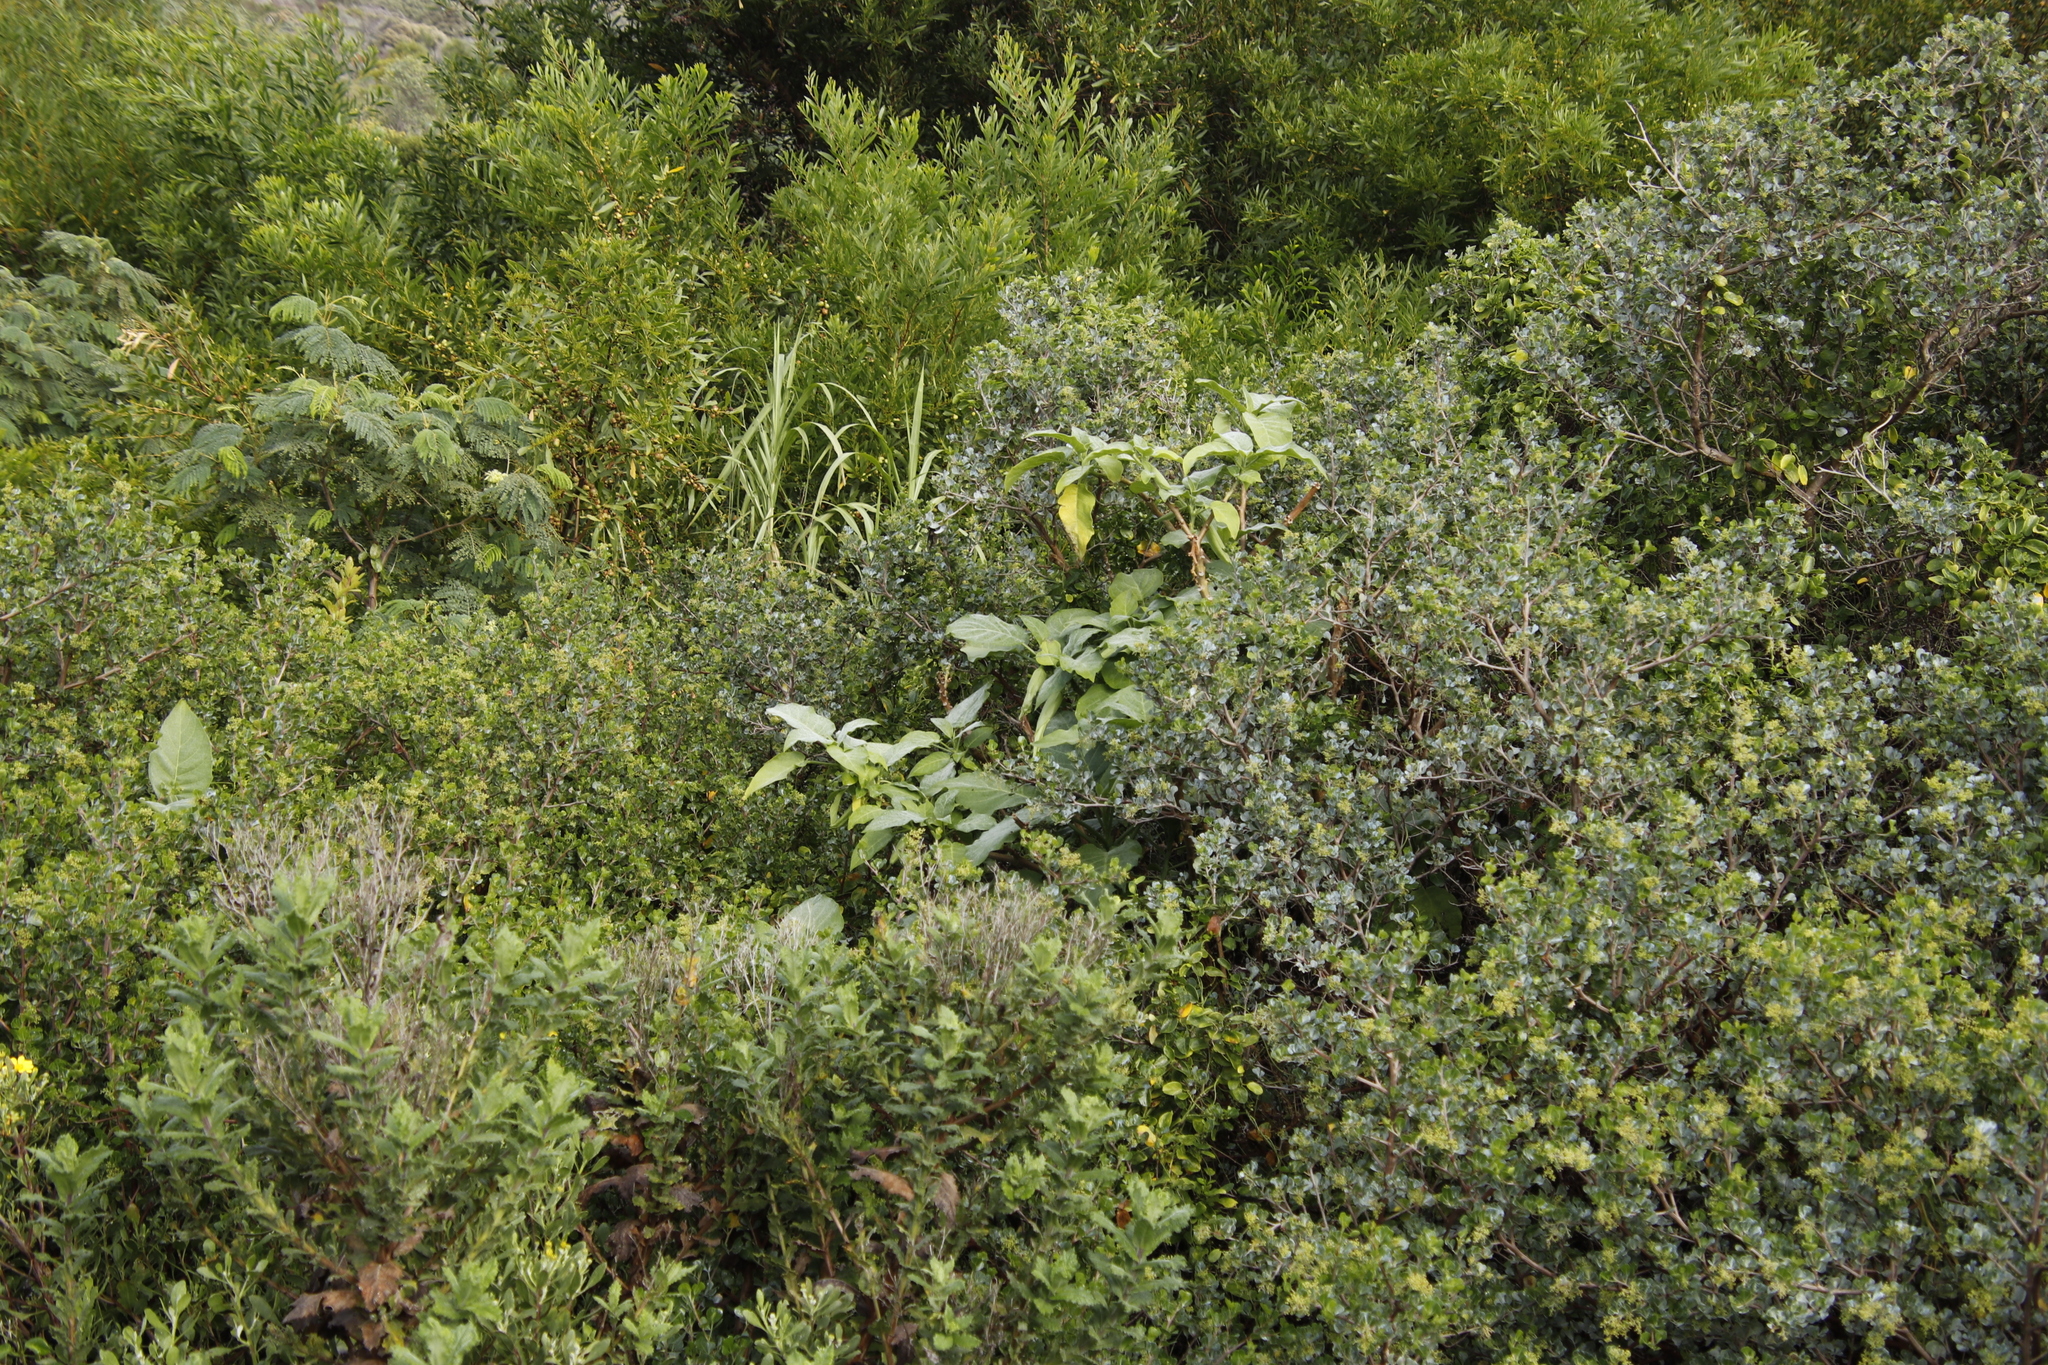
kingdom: Plantae
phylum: Tracheophyta
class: Magnoliopsida
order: Solanales
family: Solanaceae
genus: Solanum
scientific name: Solanum mauritianum
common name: Earleaf nightshade
